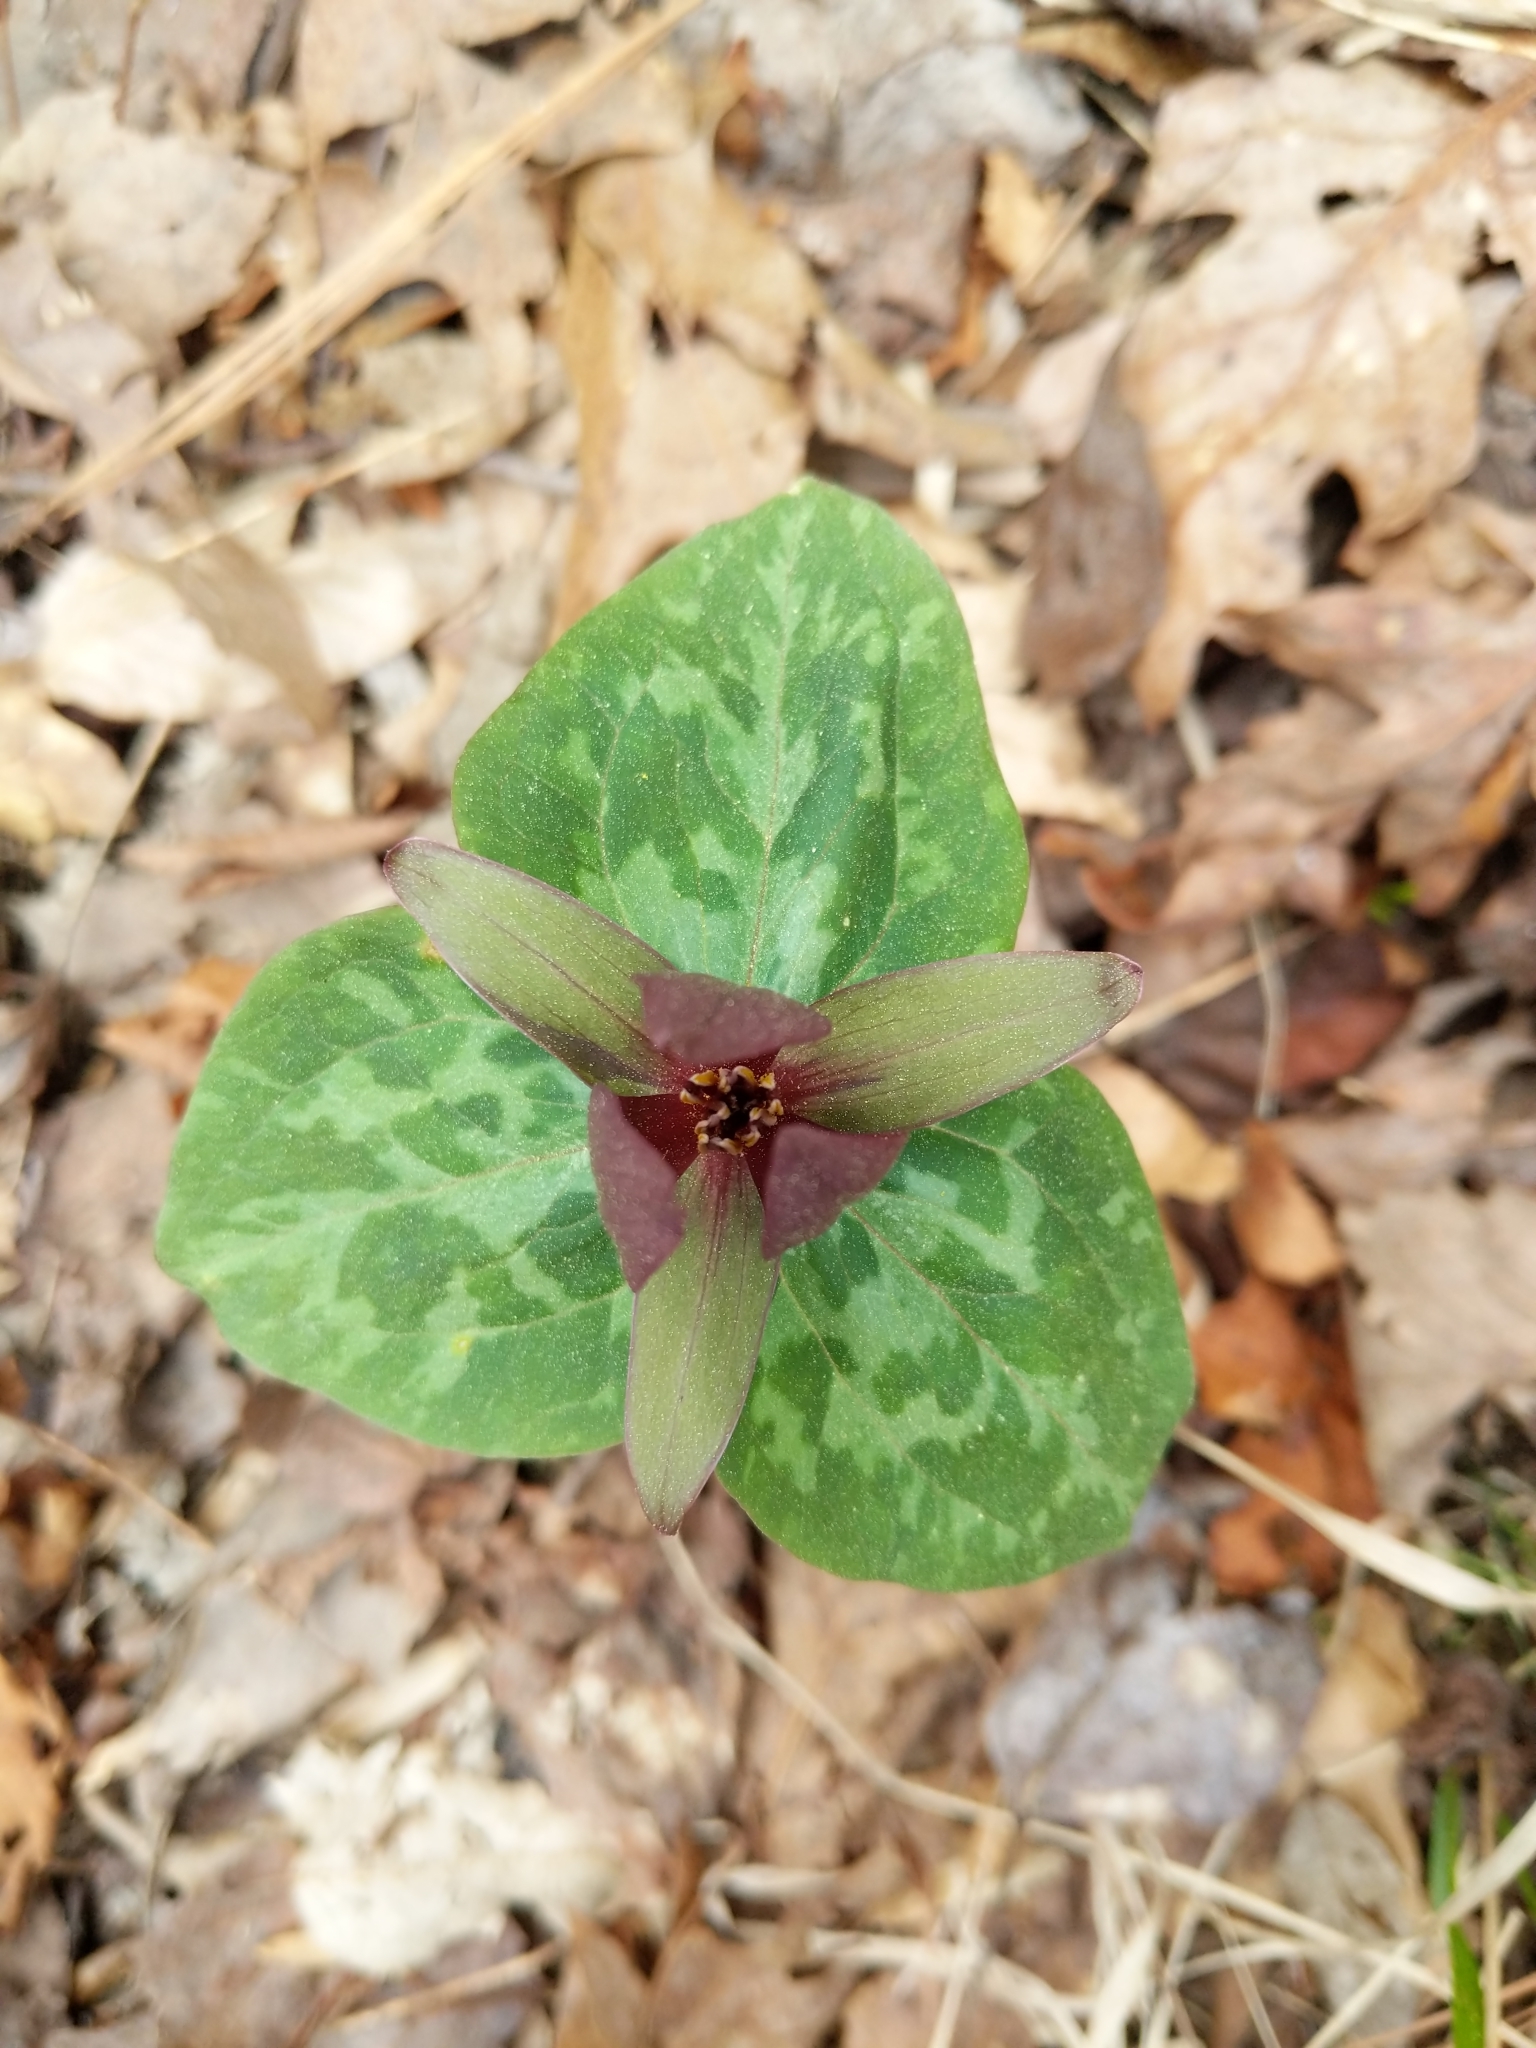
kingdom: Plantae
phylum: Tracheophyta
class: Liliopsida
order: Liliales
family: Melanthiaceae
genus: Trillium
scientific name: Trillium cuneatum
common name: Cuneate trillium
